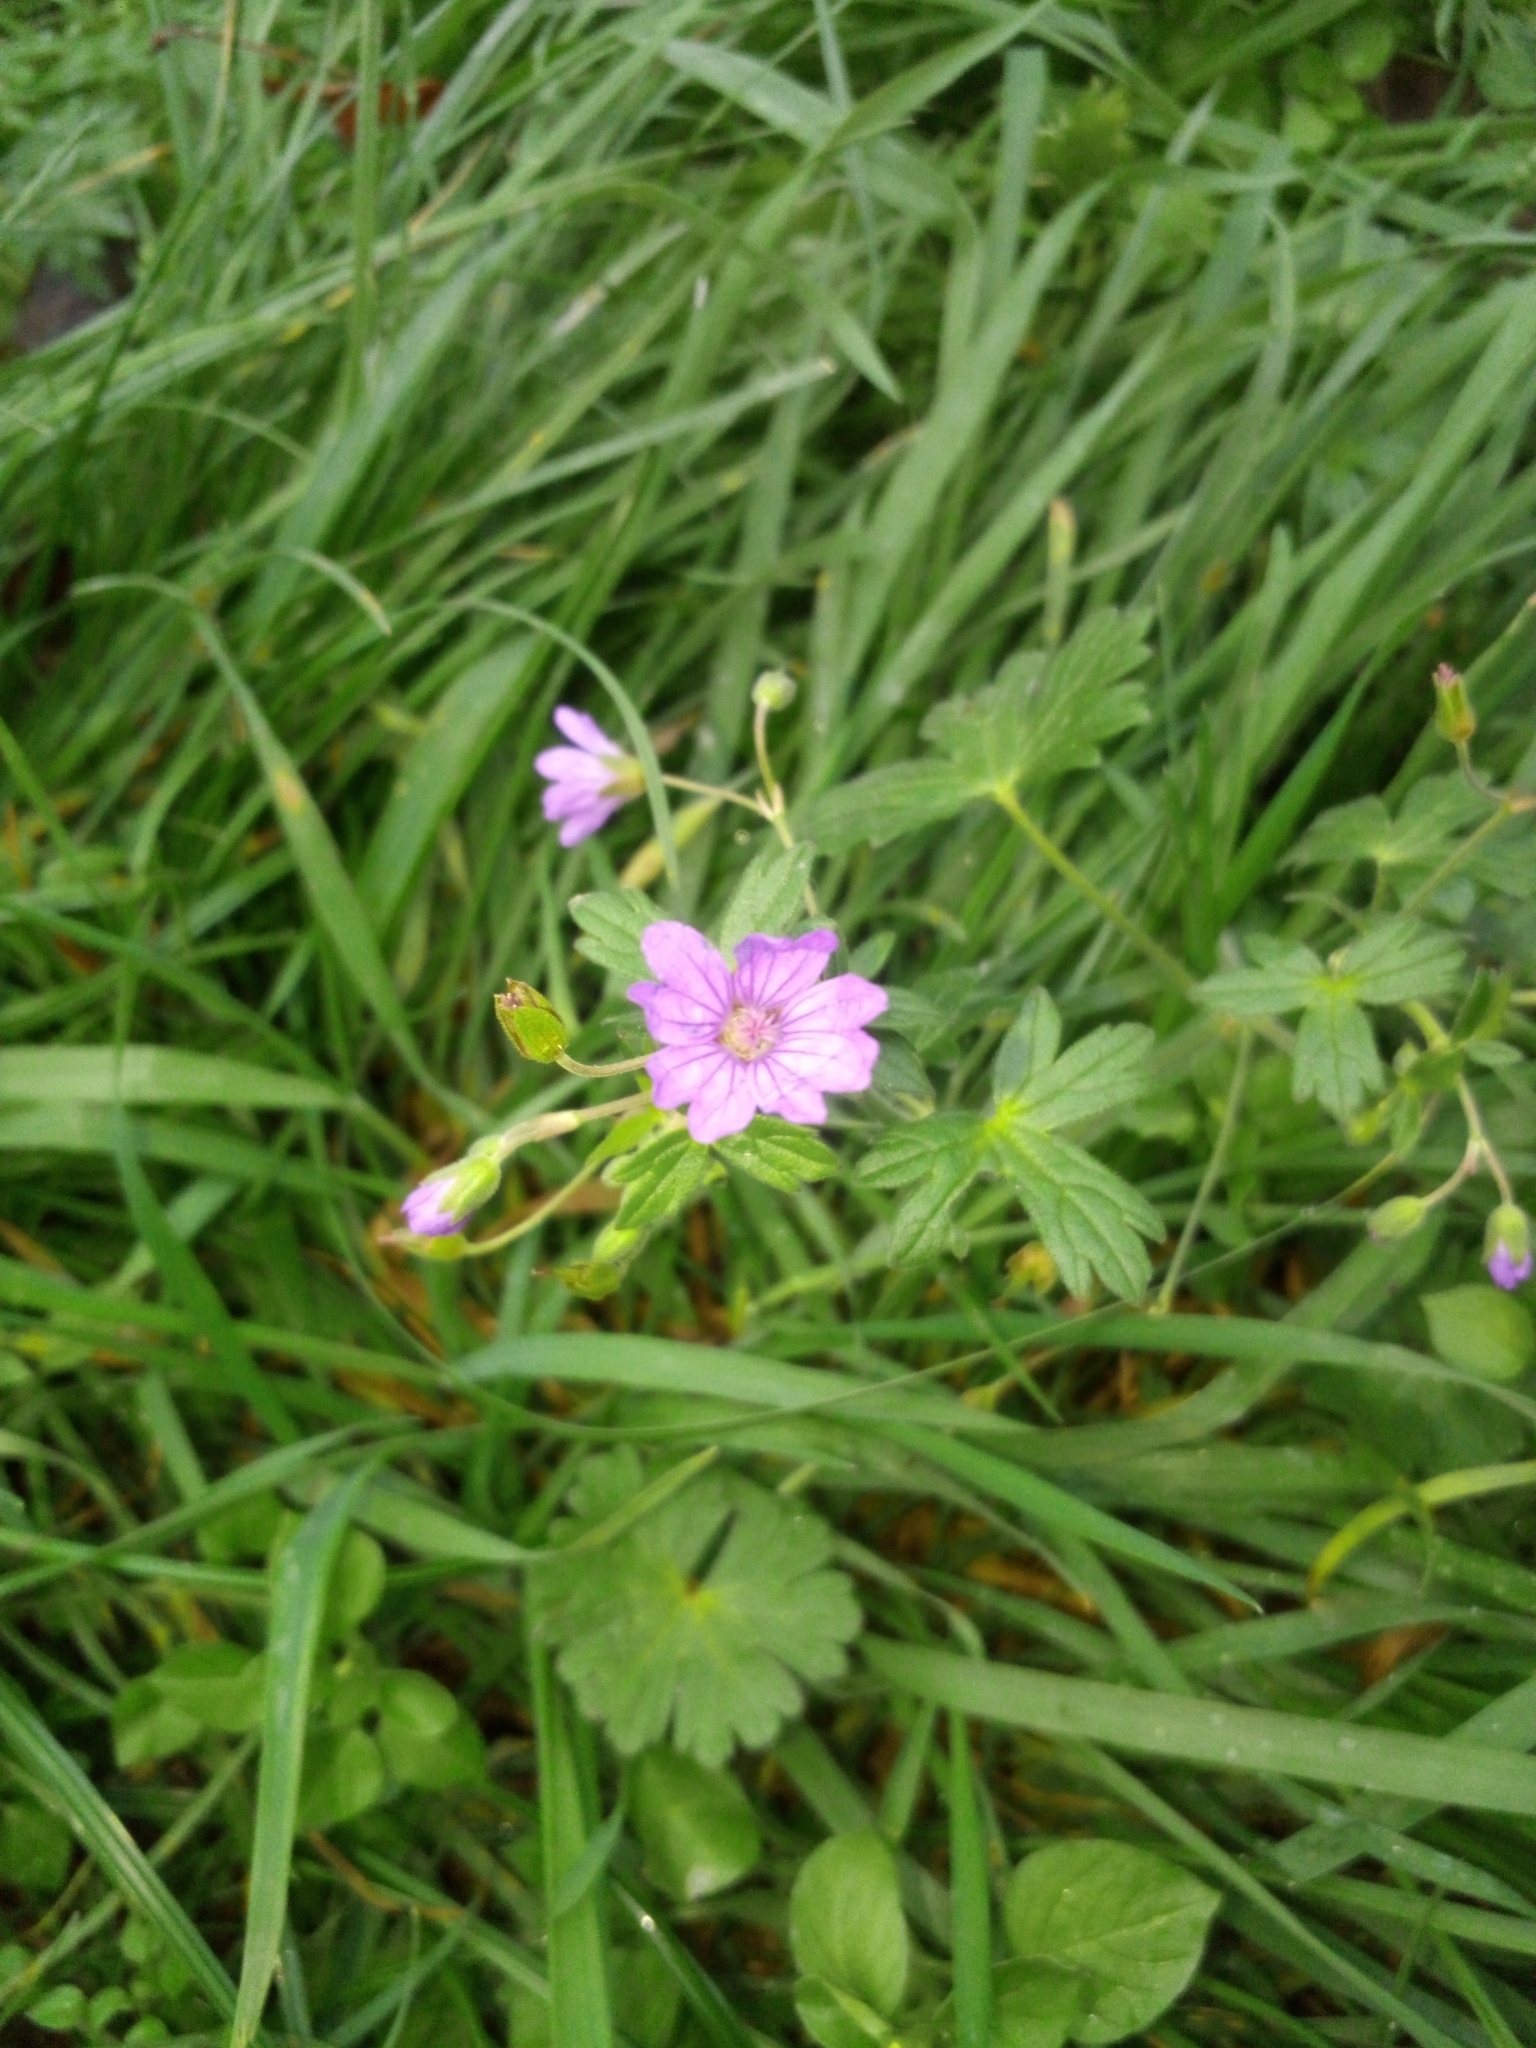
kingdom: Plantae
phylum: Tracheophyta
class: Magnoliopsida
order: Geraniales
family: Geraniaceae
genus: Geranium
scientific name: Geranium pyrenaicum
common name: Hedgerow crane's-bill
